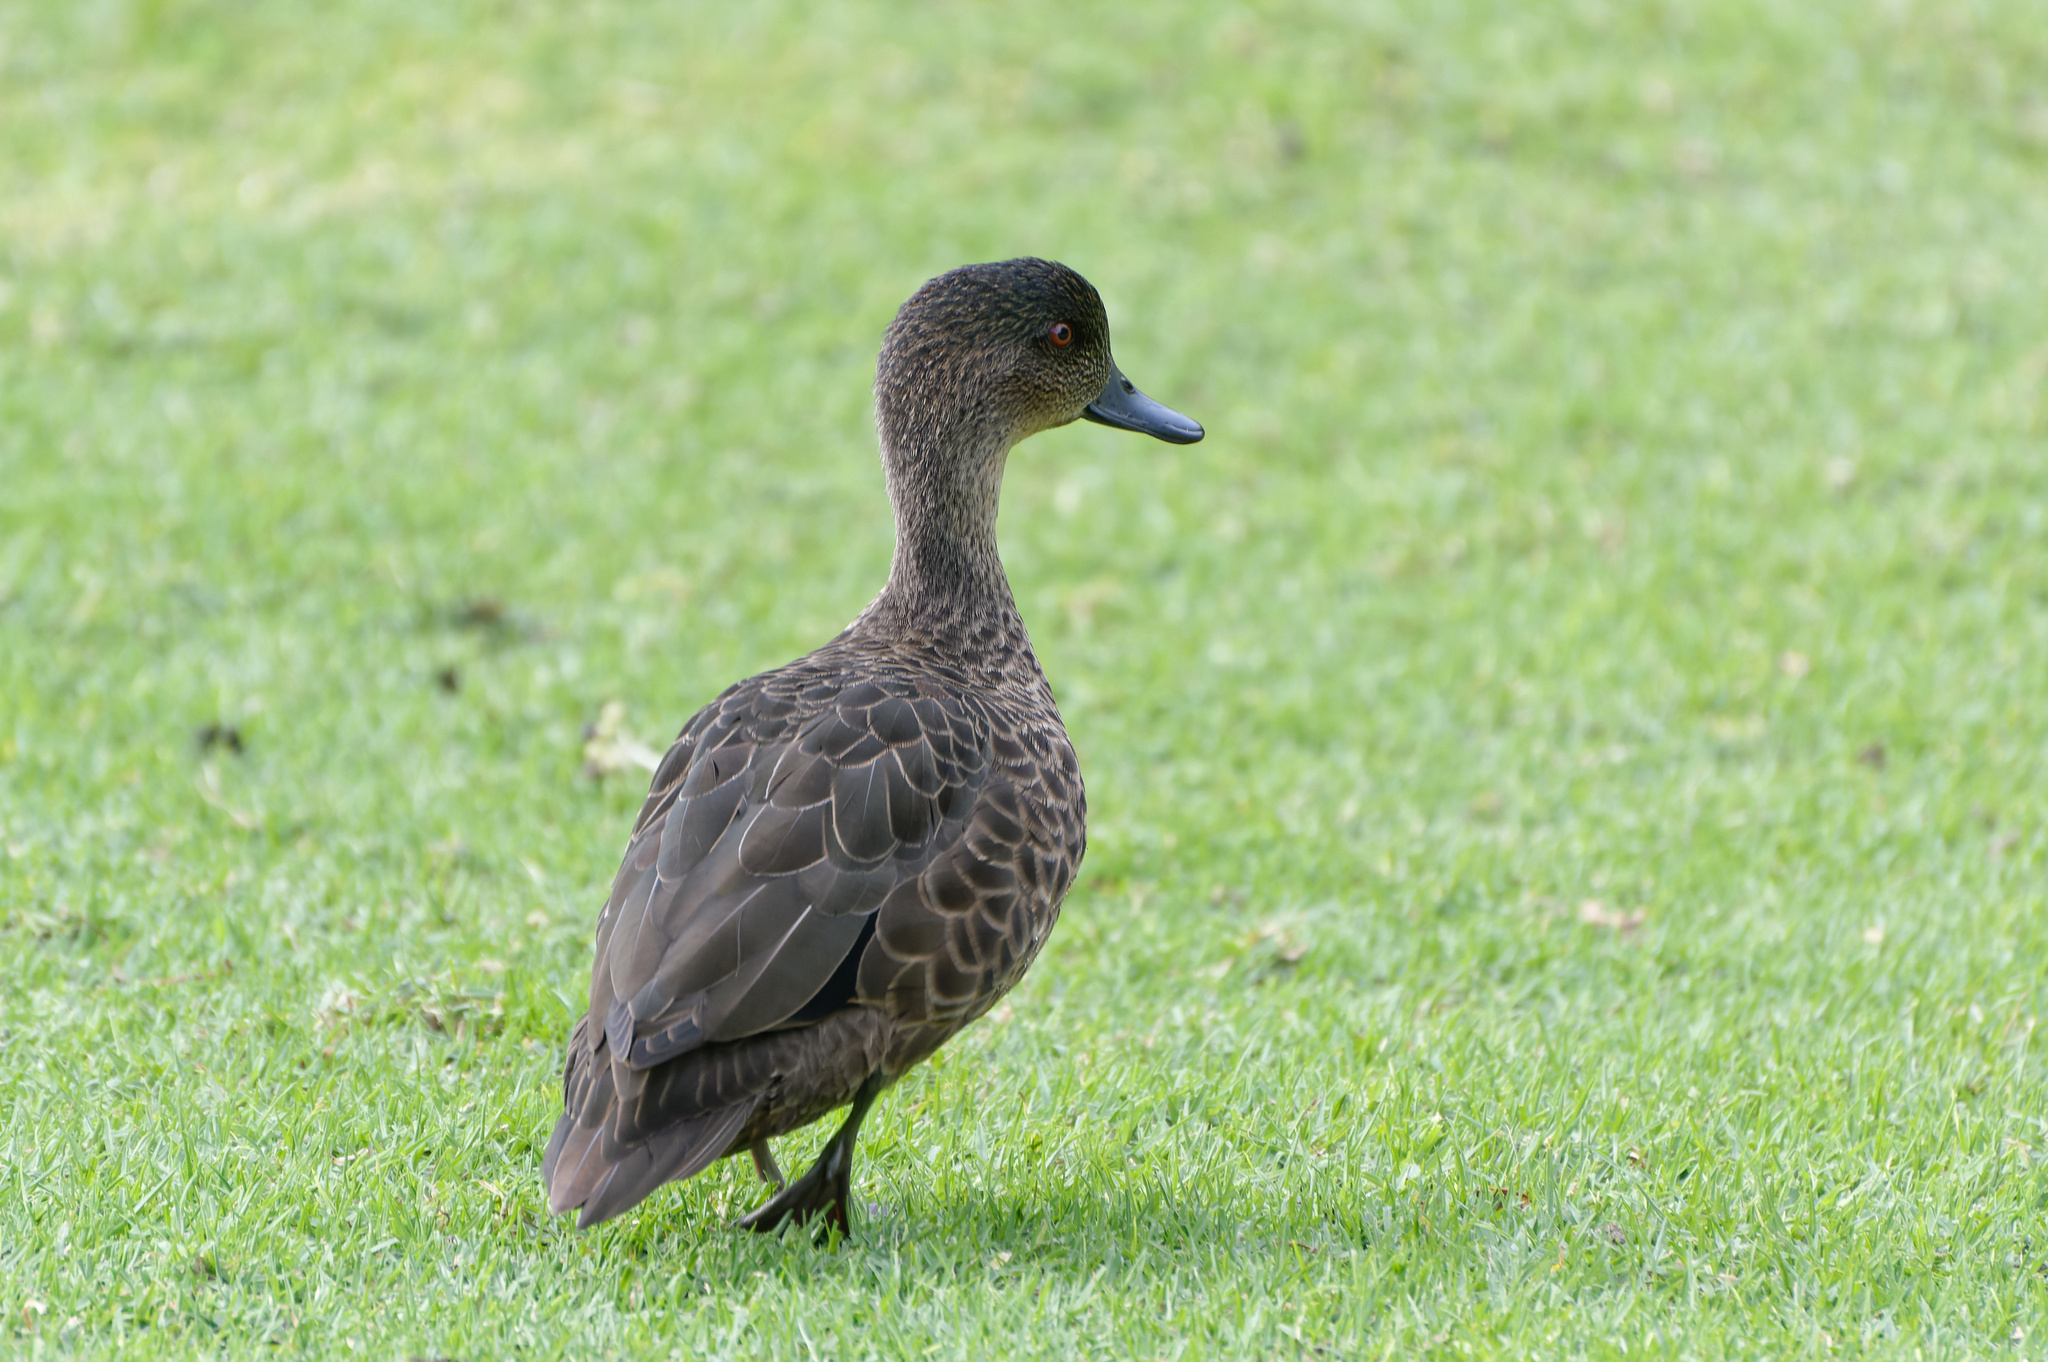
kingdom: Animalia
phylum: Chordata
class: Aves
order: Anseriformes
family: Anatidae
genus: Anas
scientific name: Anas castanea
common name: Chestnut teal
